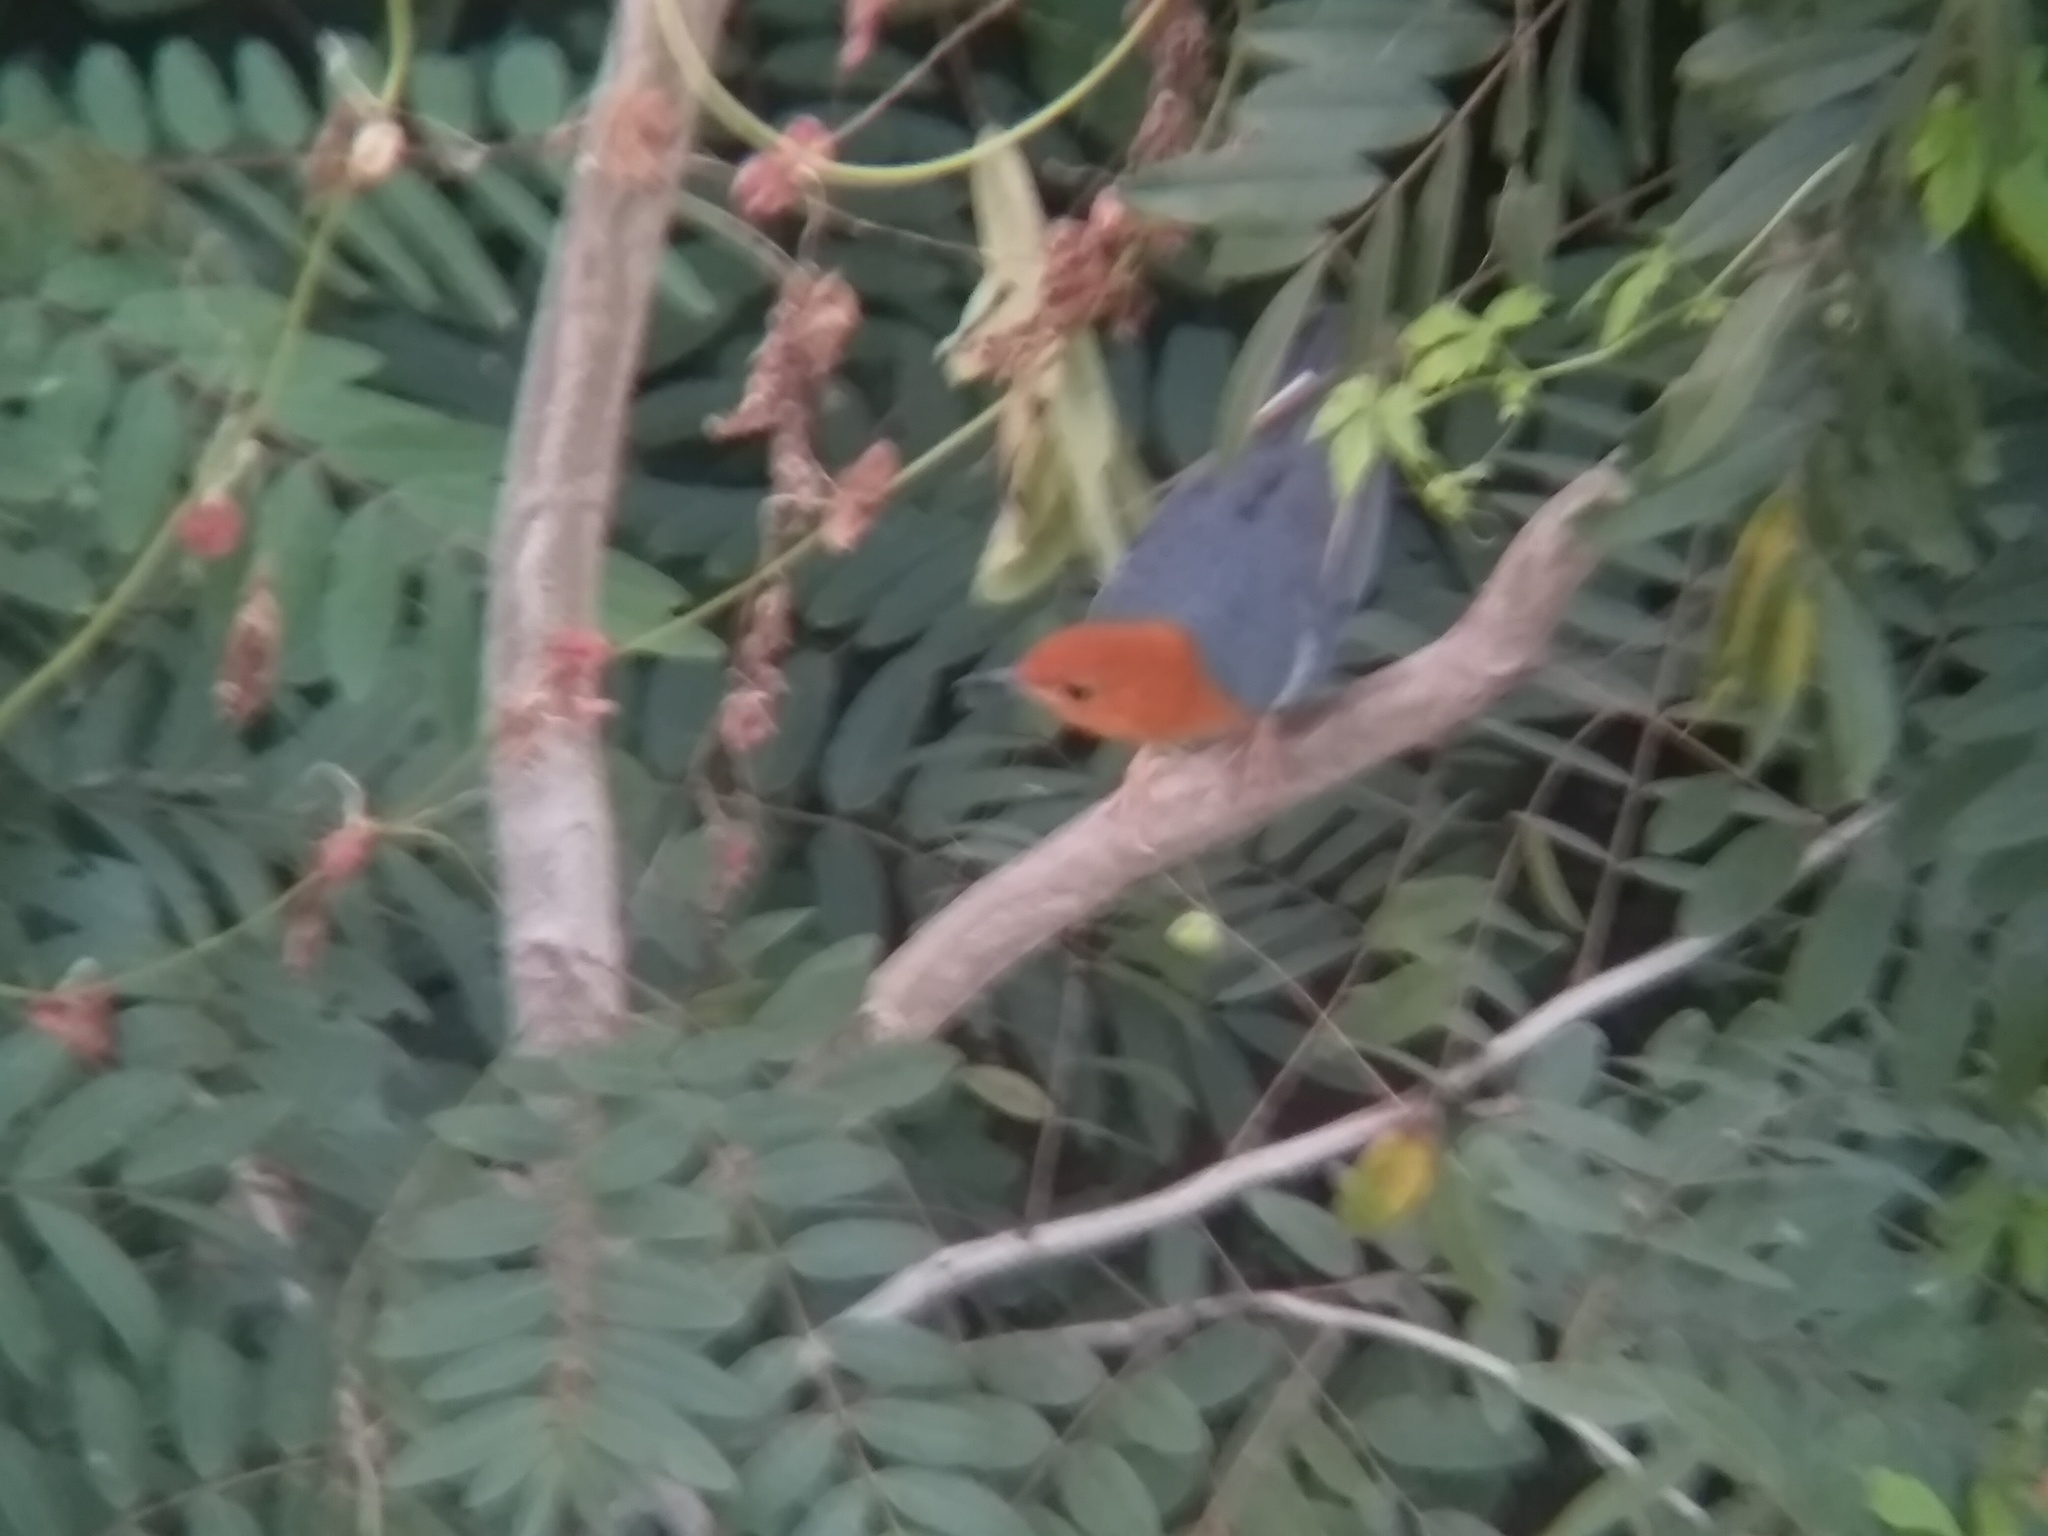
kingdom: Animalia
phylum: Chordata
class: Aves
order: Passeriformes
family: Turdidae
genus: Geokichla
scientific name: Geokichla citrina
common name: Orange-headed thrush
